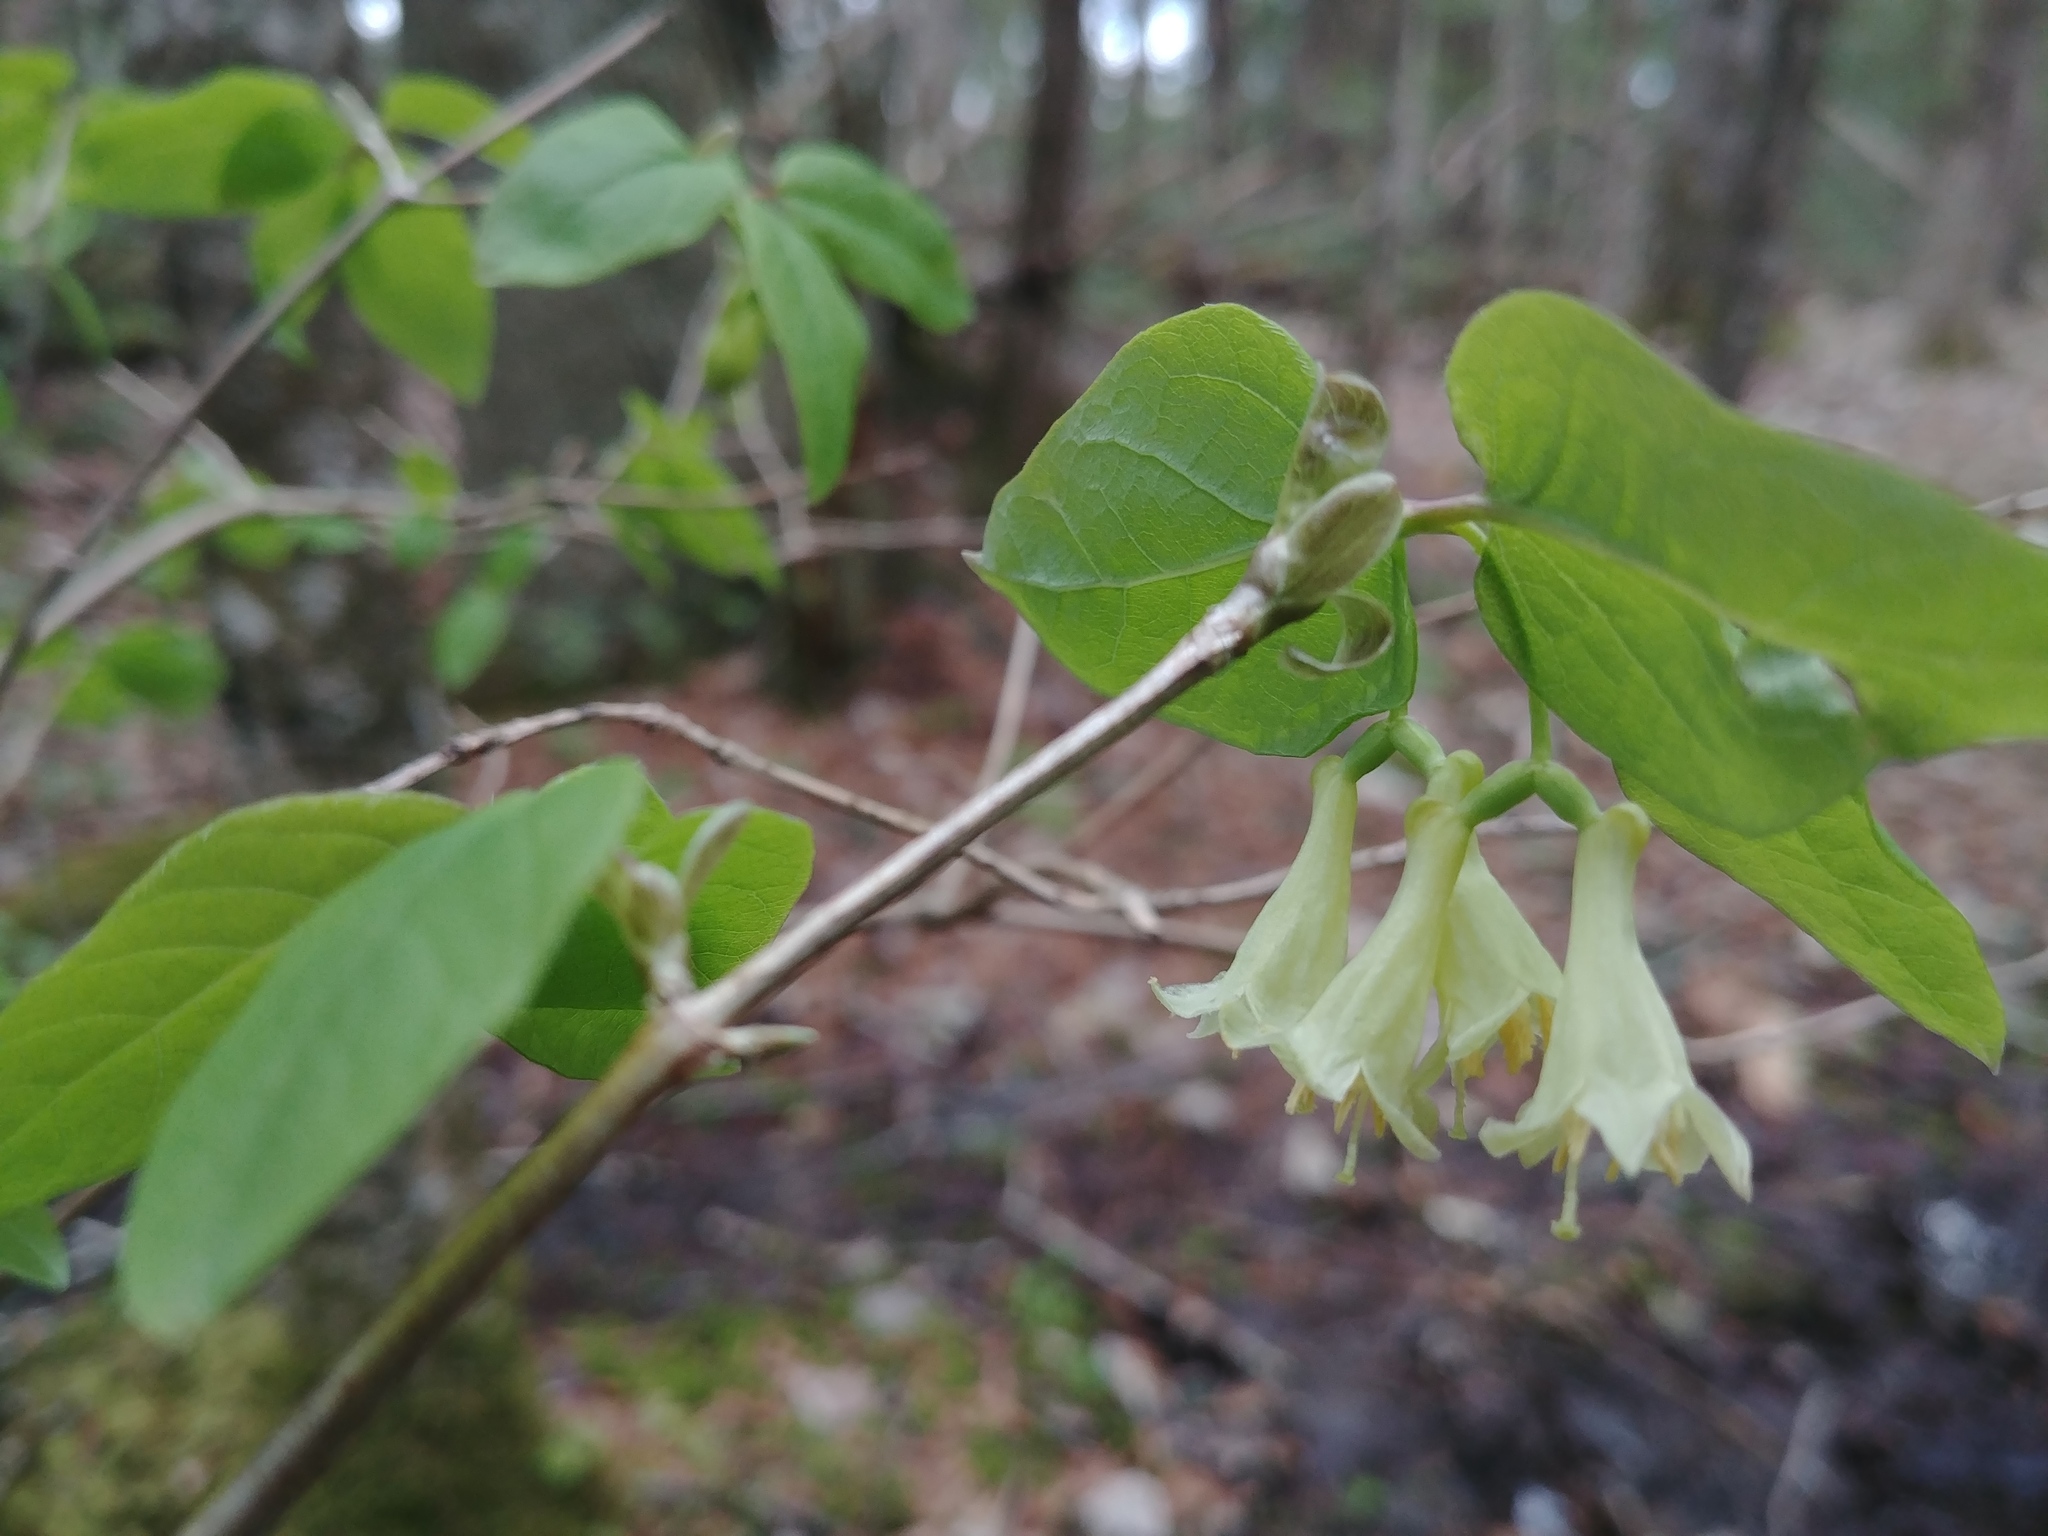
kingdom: Plantae
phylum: Tracheophyta
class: Magnoliopsida
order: Dipsacales
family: Caprifoliaceae
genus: Lonicera
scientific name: Lonicera canadensis
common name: American fly-honeysuckle
